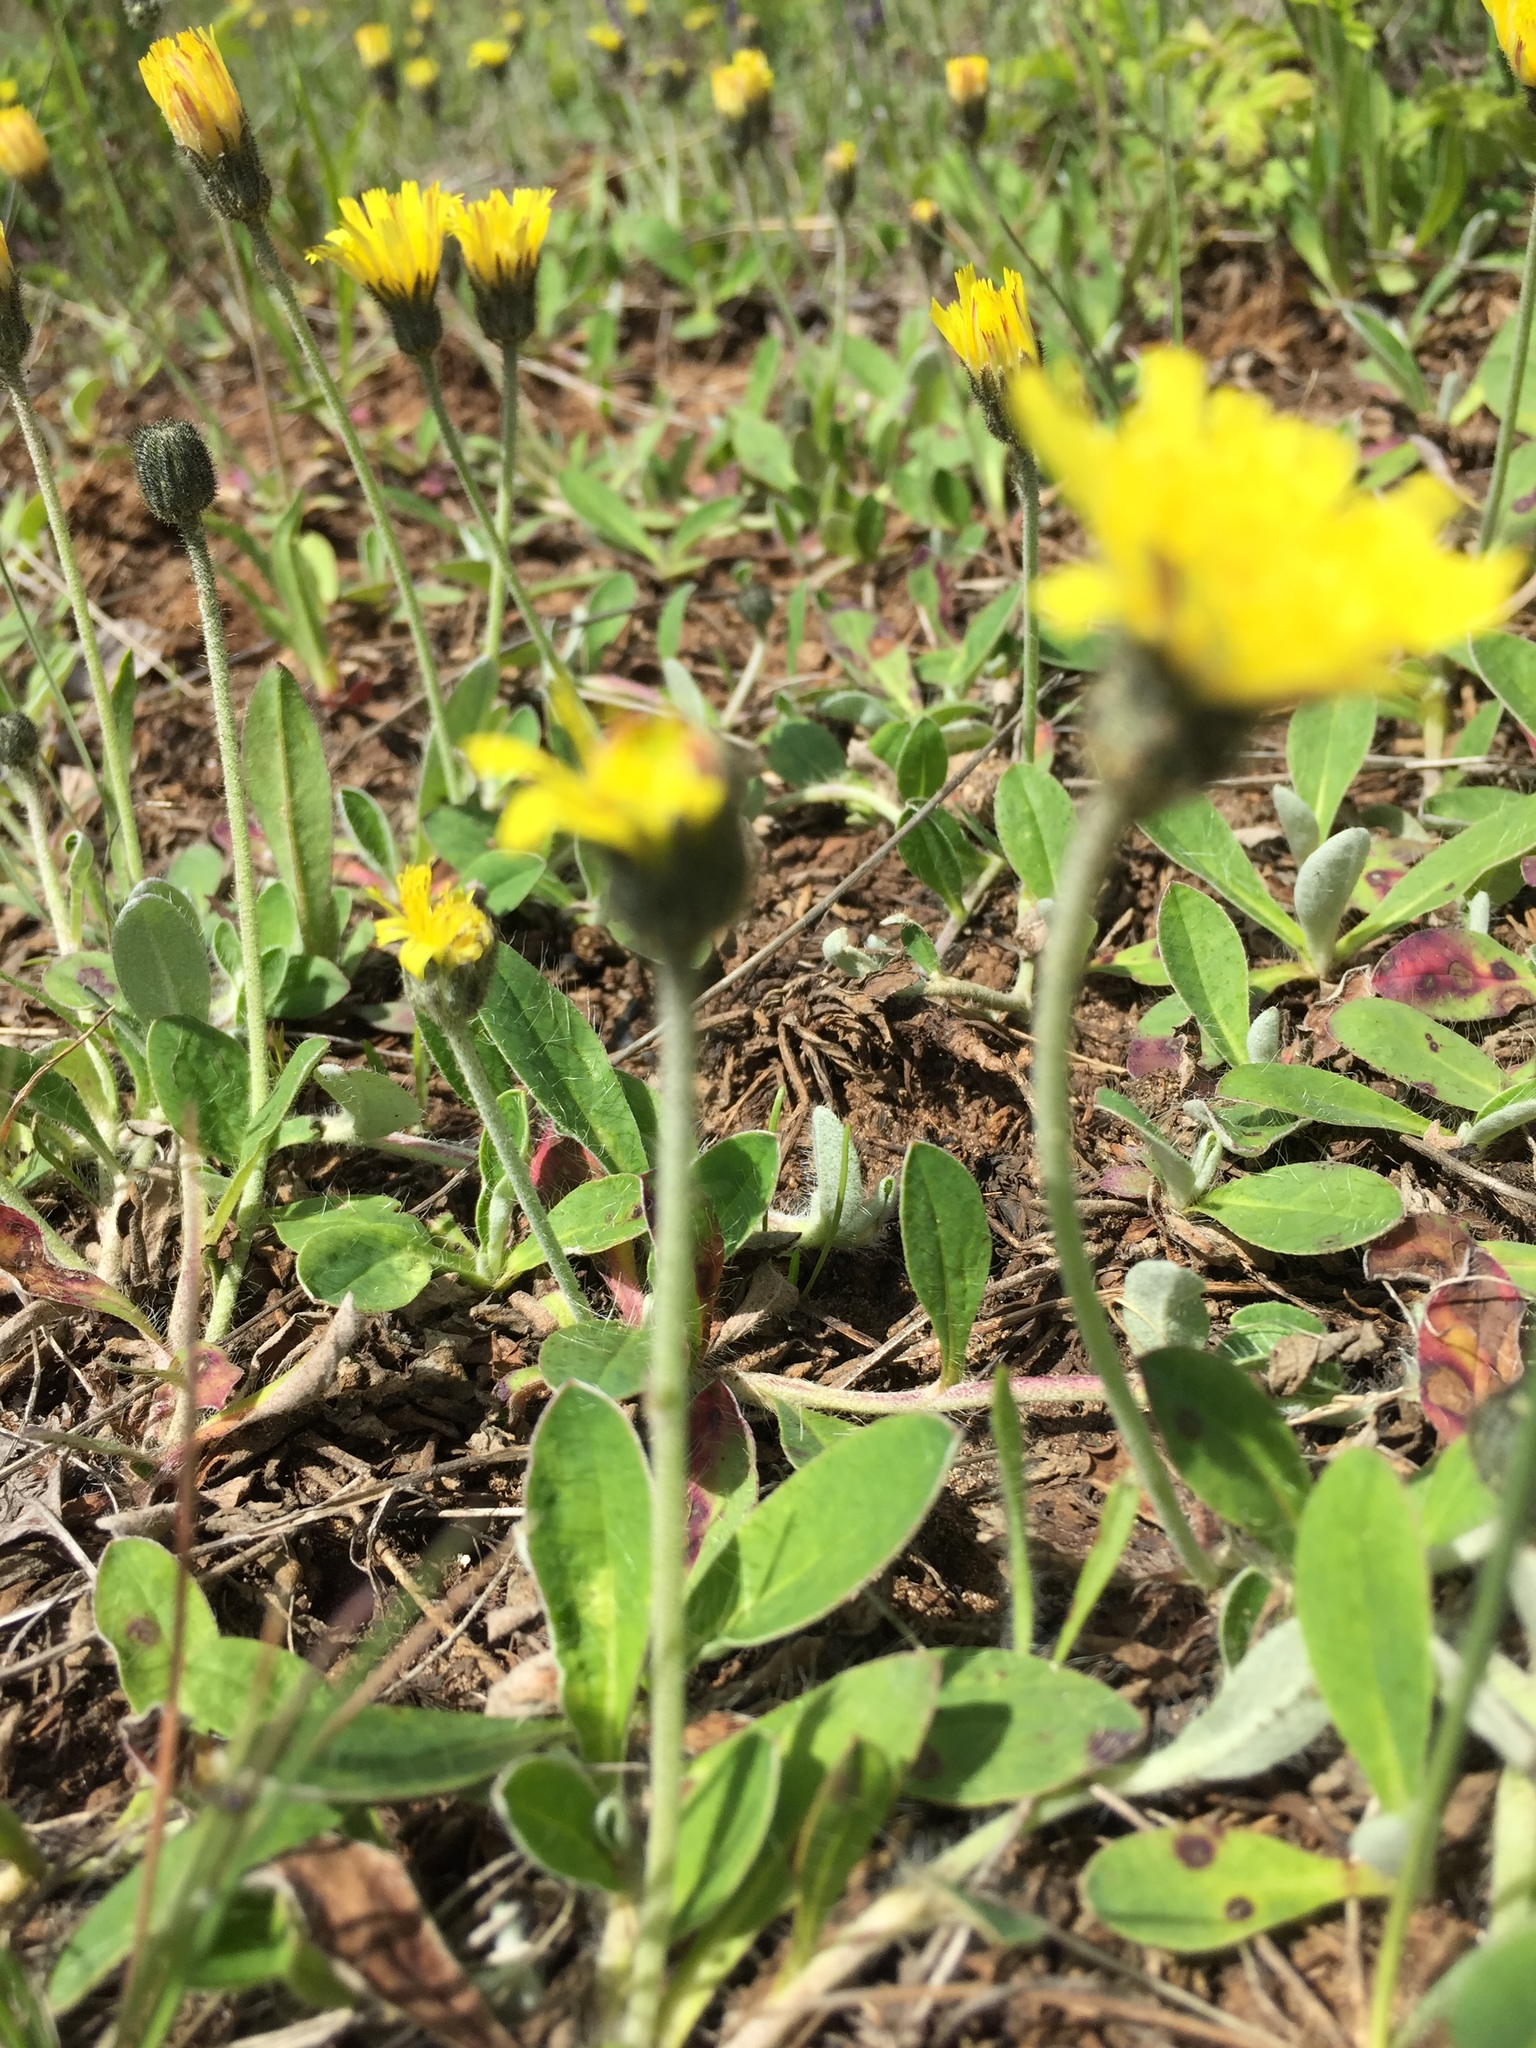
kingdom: Plantae
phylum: Tracheophyta
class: Magnoliopsida
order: Asterales
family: Asteraceae
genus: Pilosella
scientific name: Pilosella officinarum
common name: Mouse-ear hawkweed
